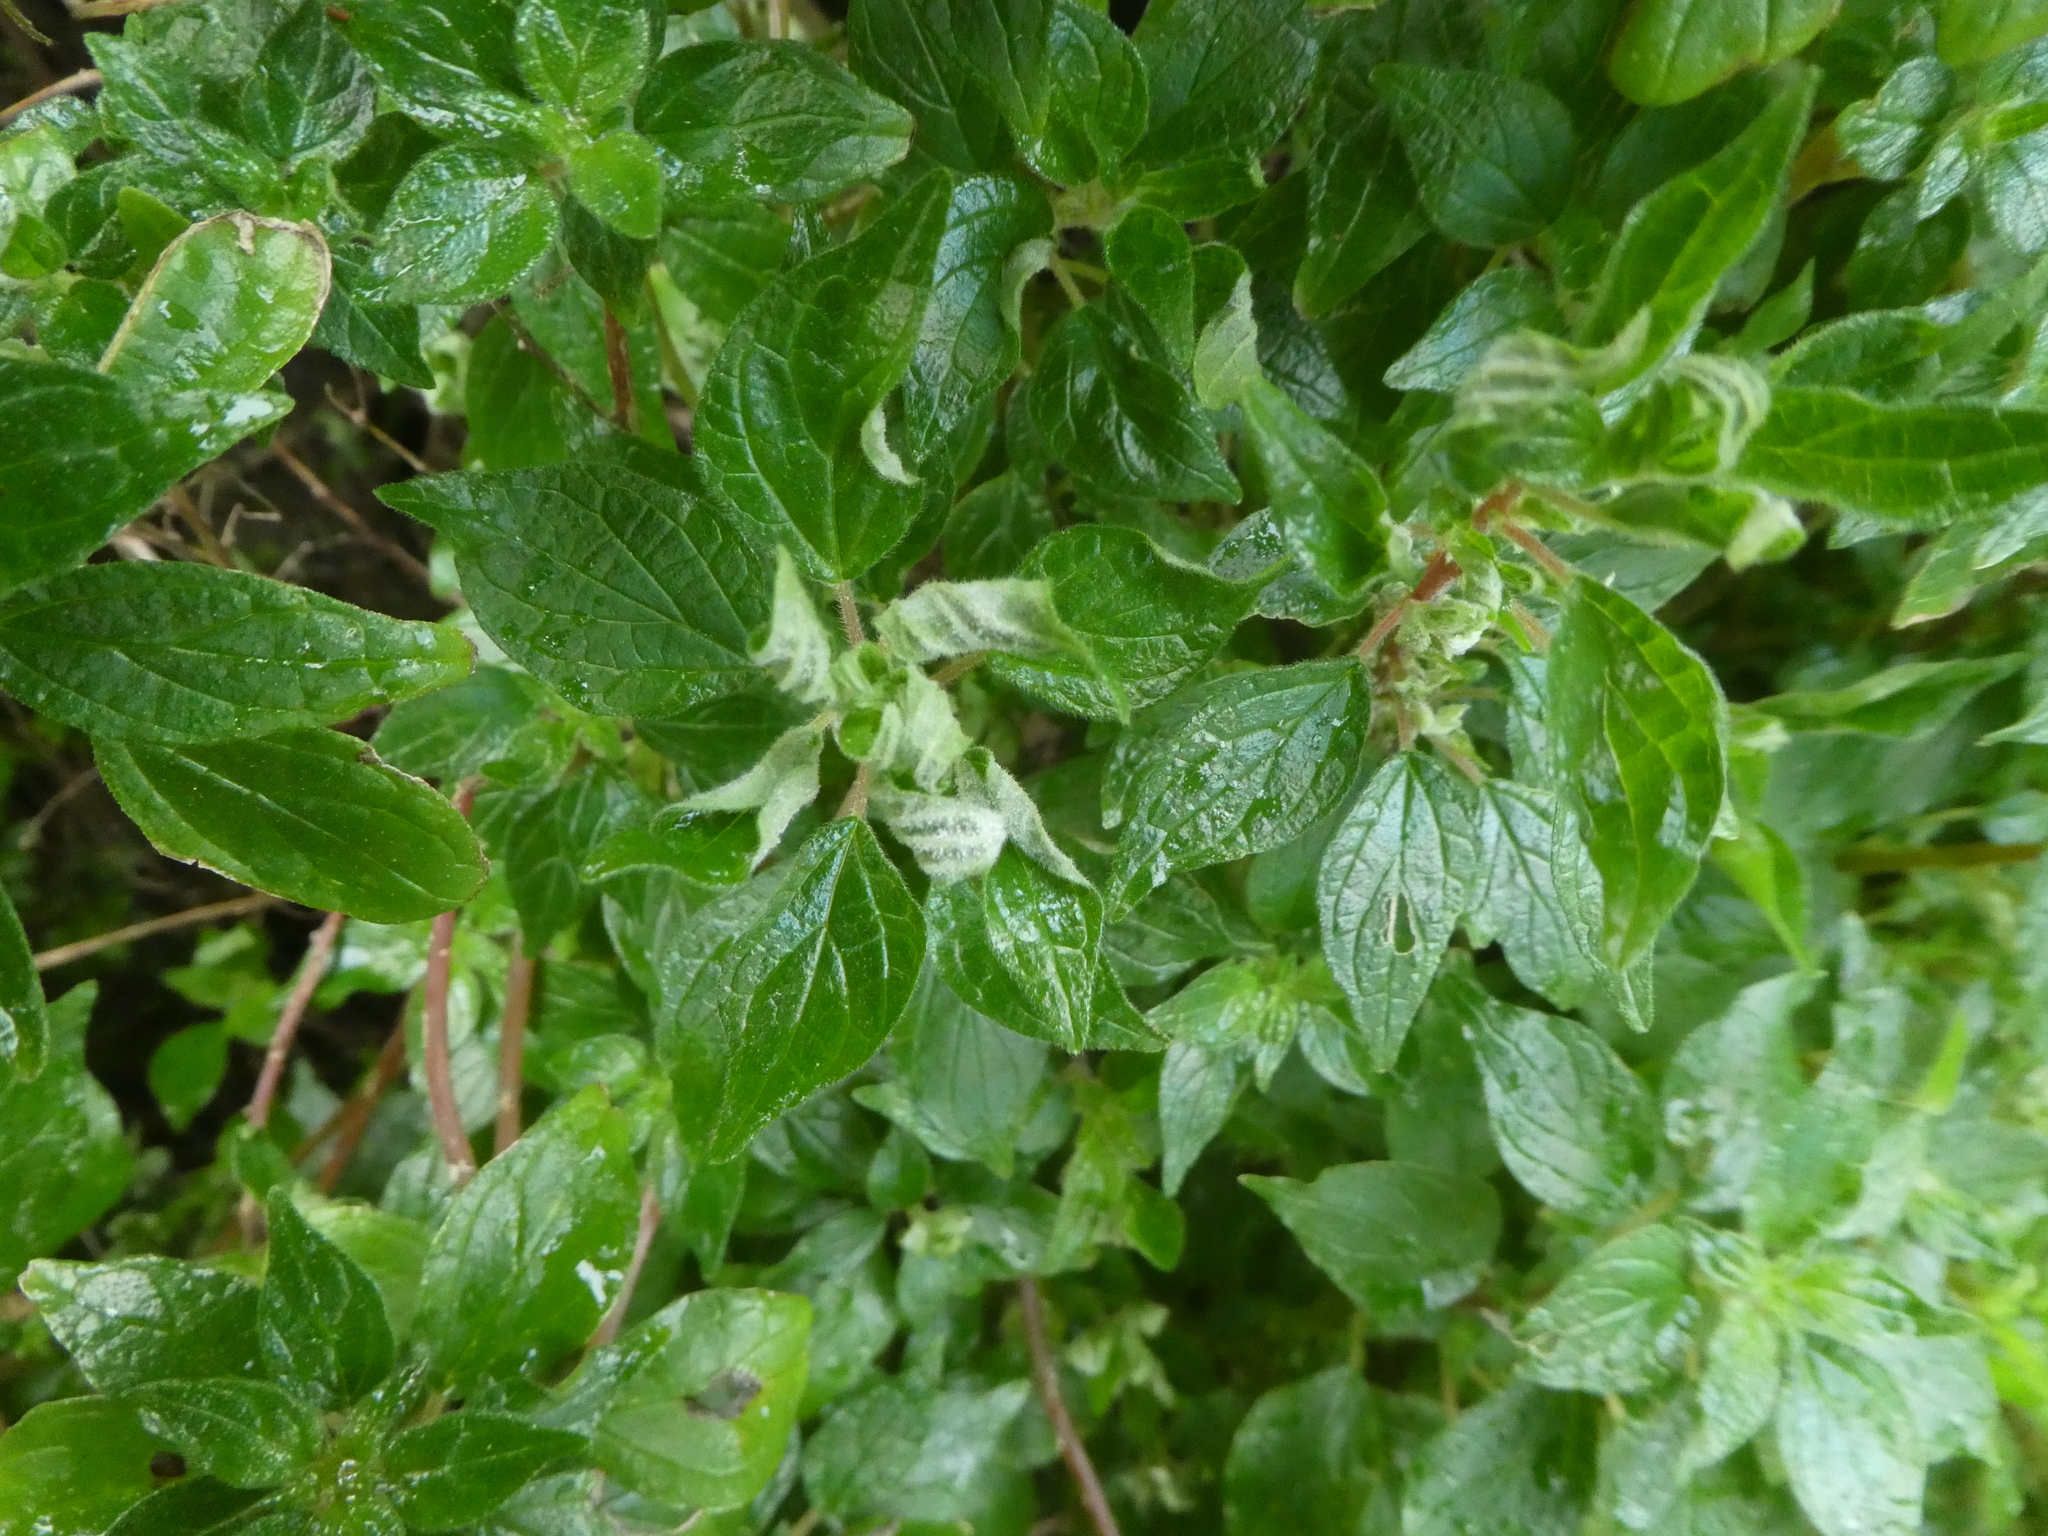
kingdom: Plantae
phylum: Tracheophyta
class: Magnoliopsida
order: Rosales
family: Urticaceae
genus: Parietaria
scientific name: Parietaria judaica
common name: Pellitory-of-the-wall
